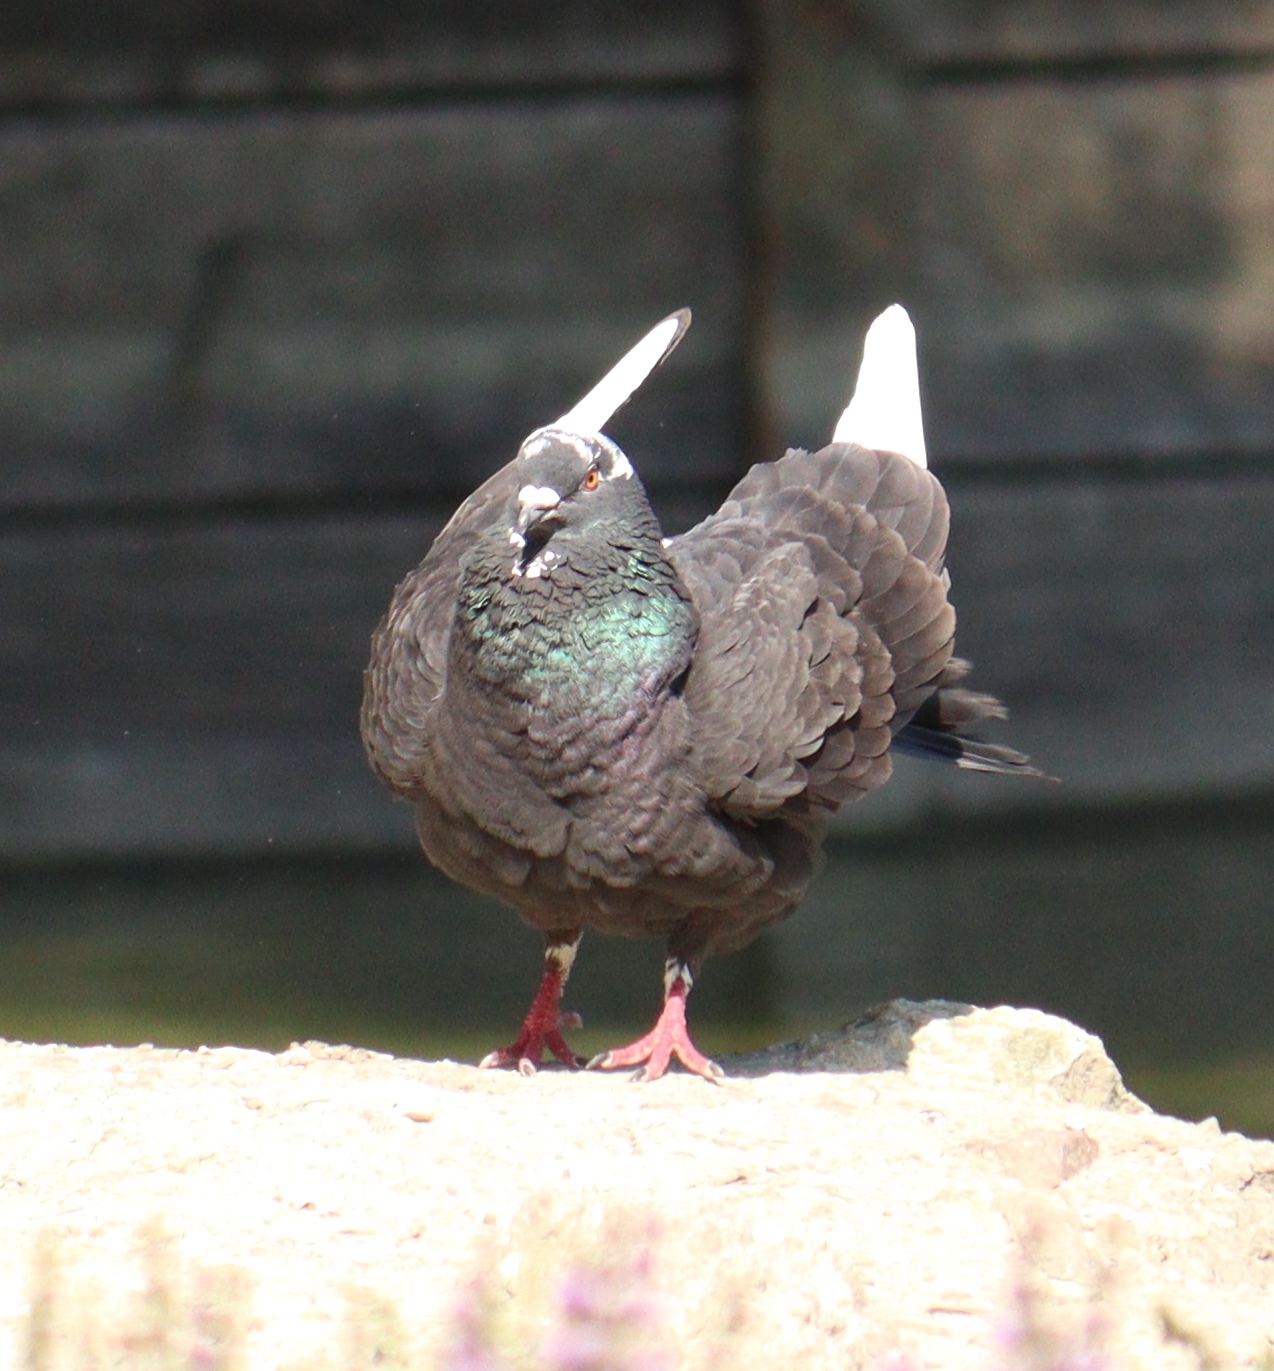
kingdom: Animalia
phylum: Chordata
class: Aves
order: Columbiformes
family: Columbidae
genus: Columba
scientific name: Columba livia
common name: Rock pigeon
